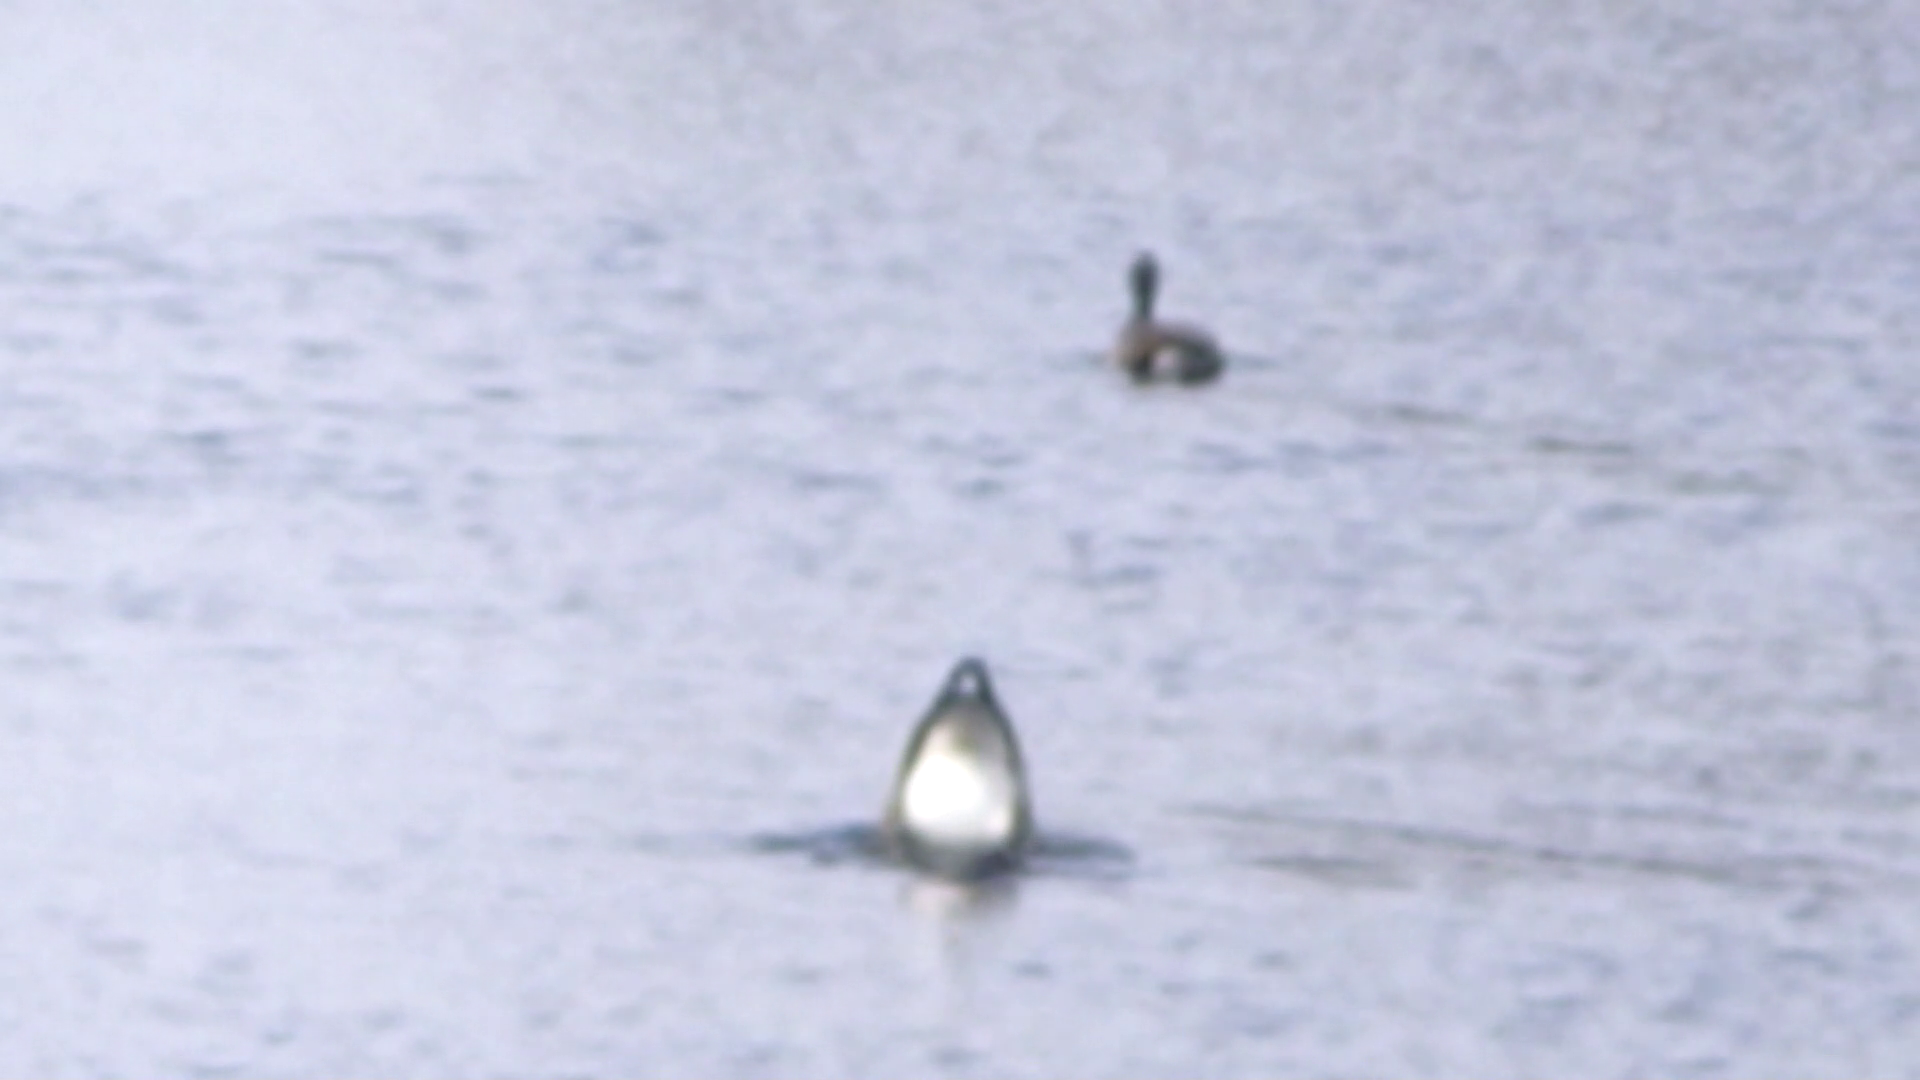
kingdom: Animalia
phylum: Chordata
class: Aves
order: Anseriformes
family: Anatidae
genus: Branta
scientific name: Branta canadensis
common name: Canada goose
